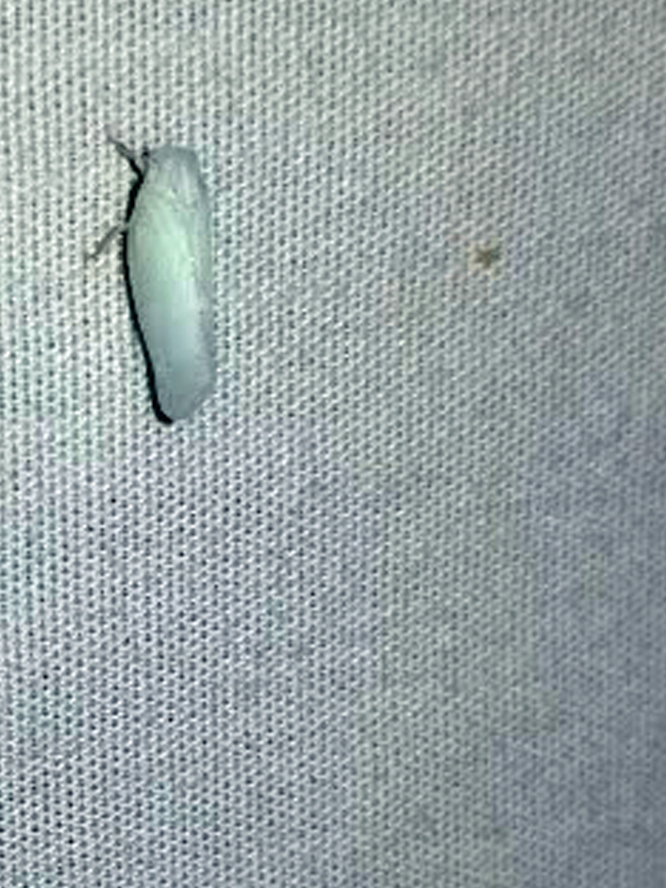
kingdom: Animalia
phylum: Arthropoda
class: Insecta
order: Hemiptera
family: Flatidae
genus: Flatormenis
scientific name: Flatormenis proxima
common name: Northern flatid planthopper
